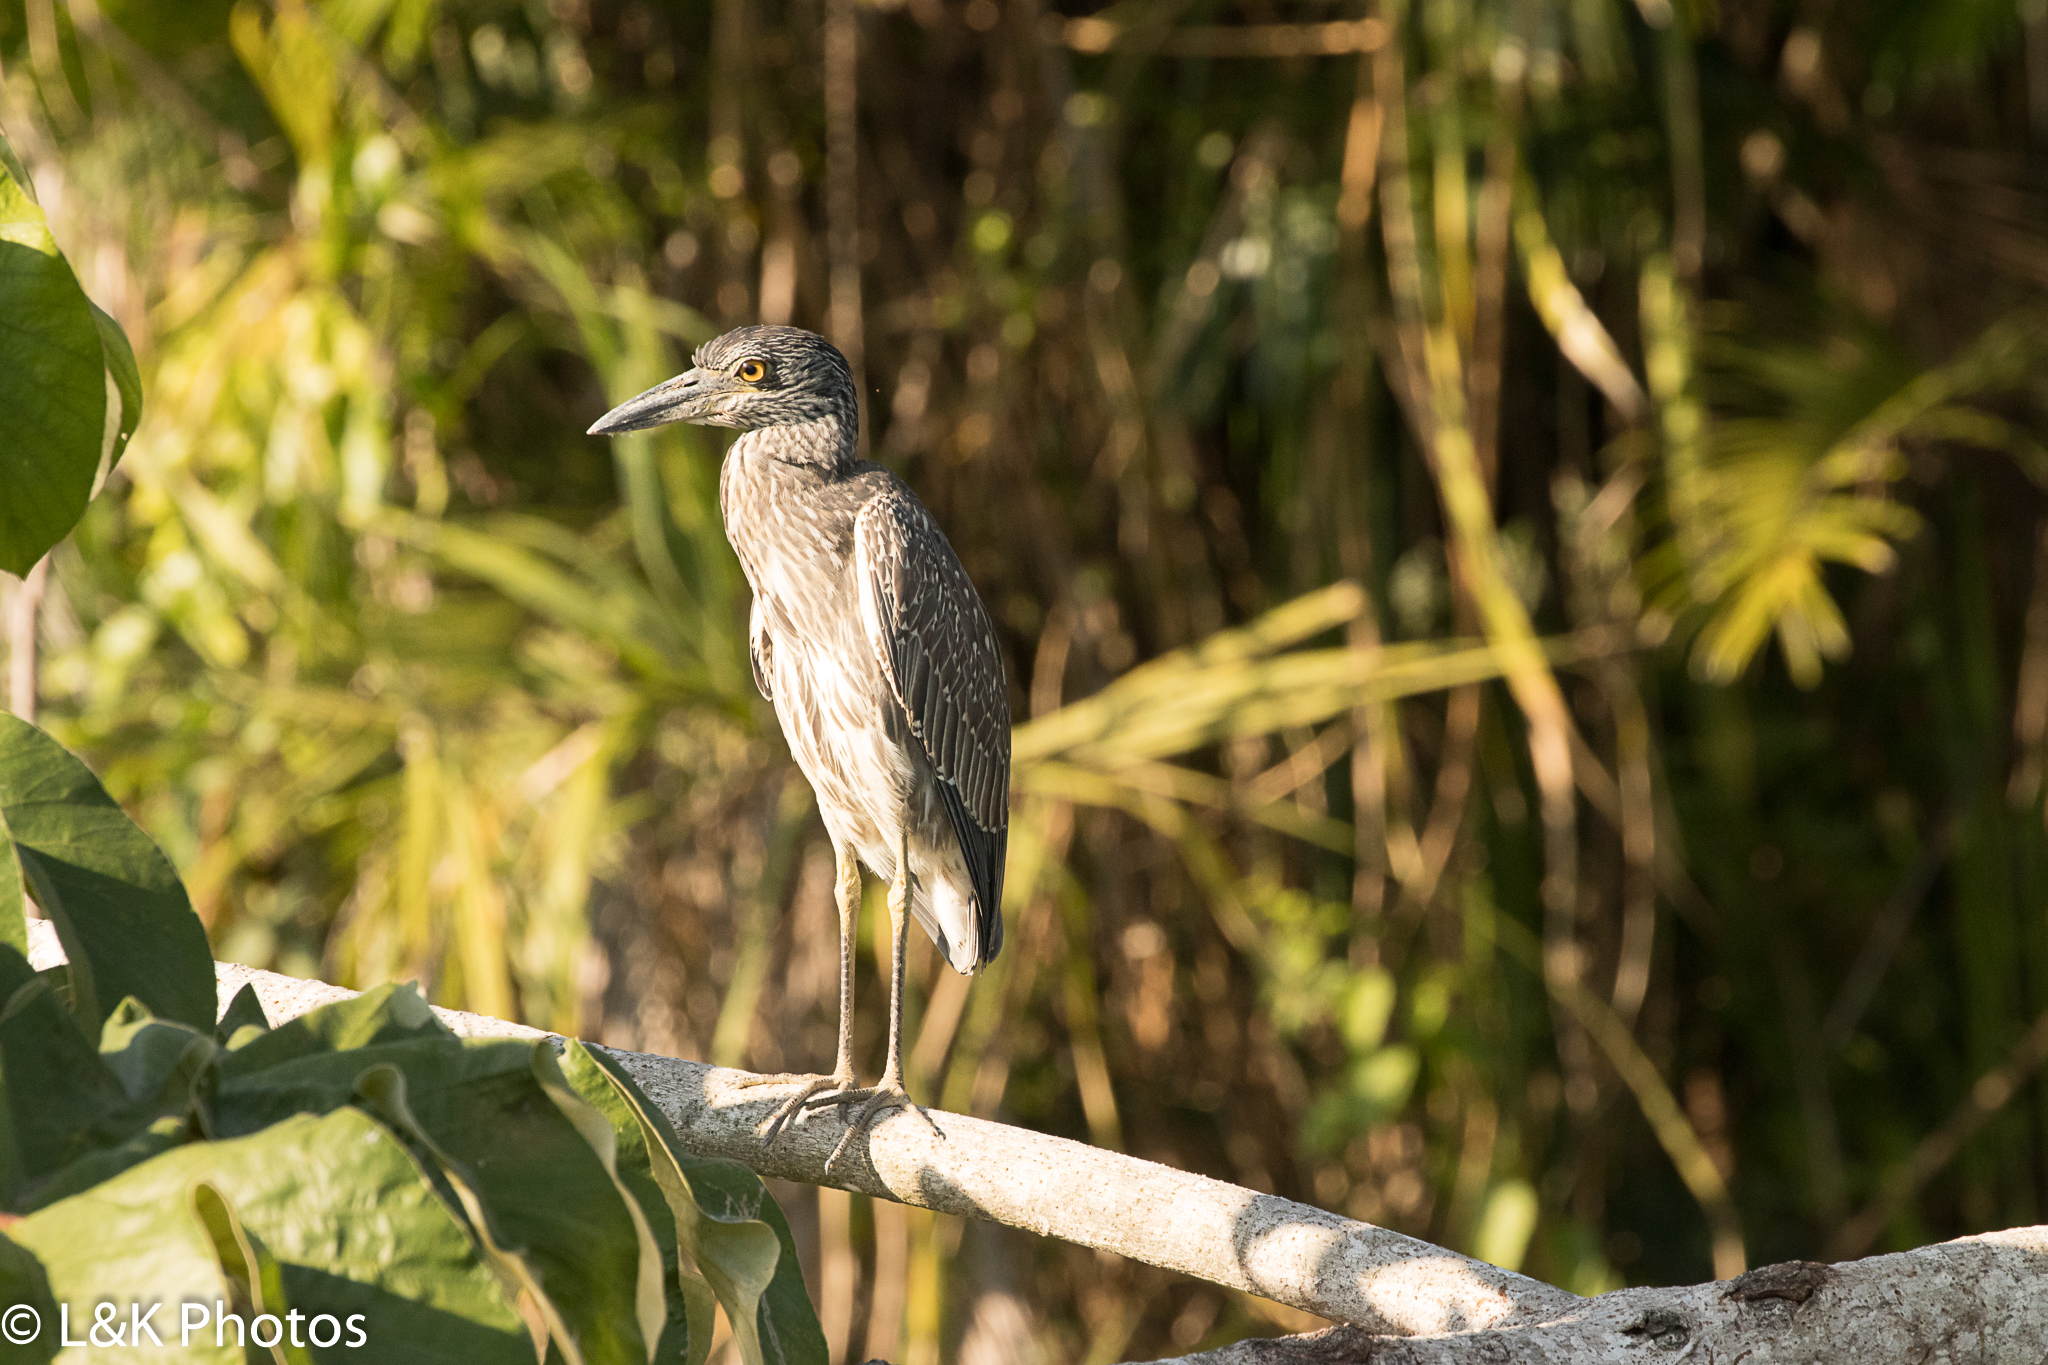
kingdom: Animalia
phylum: Chordata
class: Aves
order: Pelecaniformes
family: Ardeidae
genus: Nyctanassa
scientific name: Nyctanassa violacea
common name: Yellow-crowned night heron
